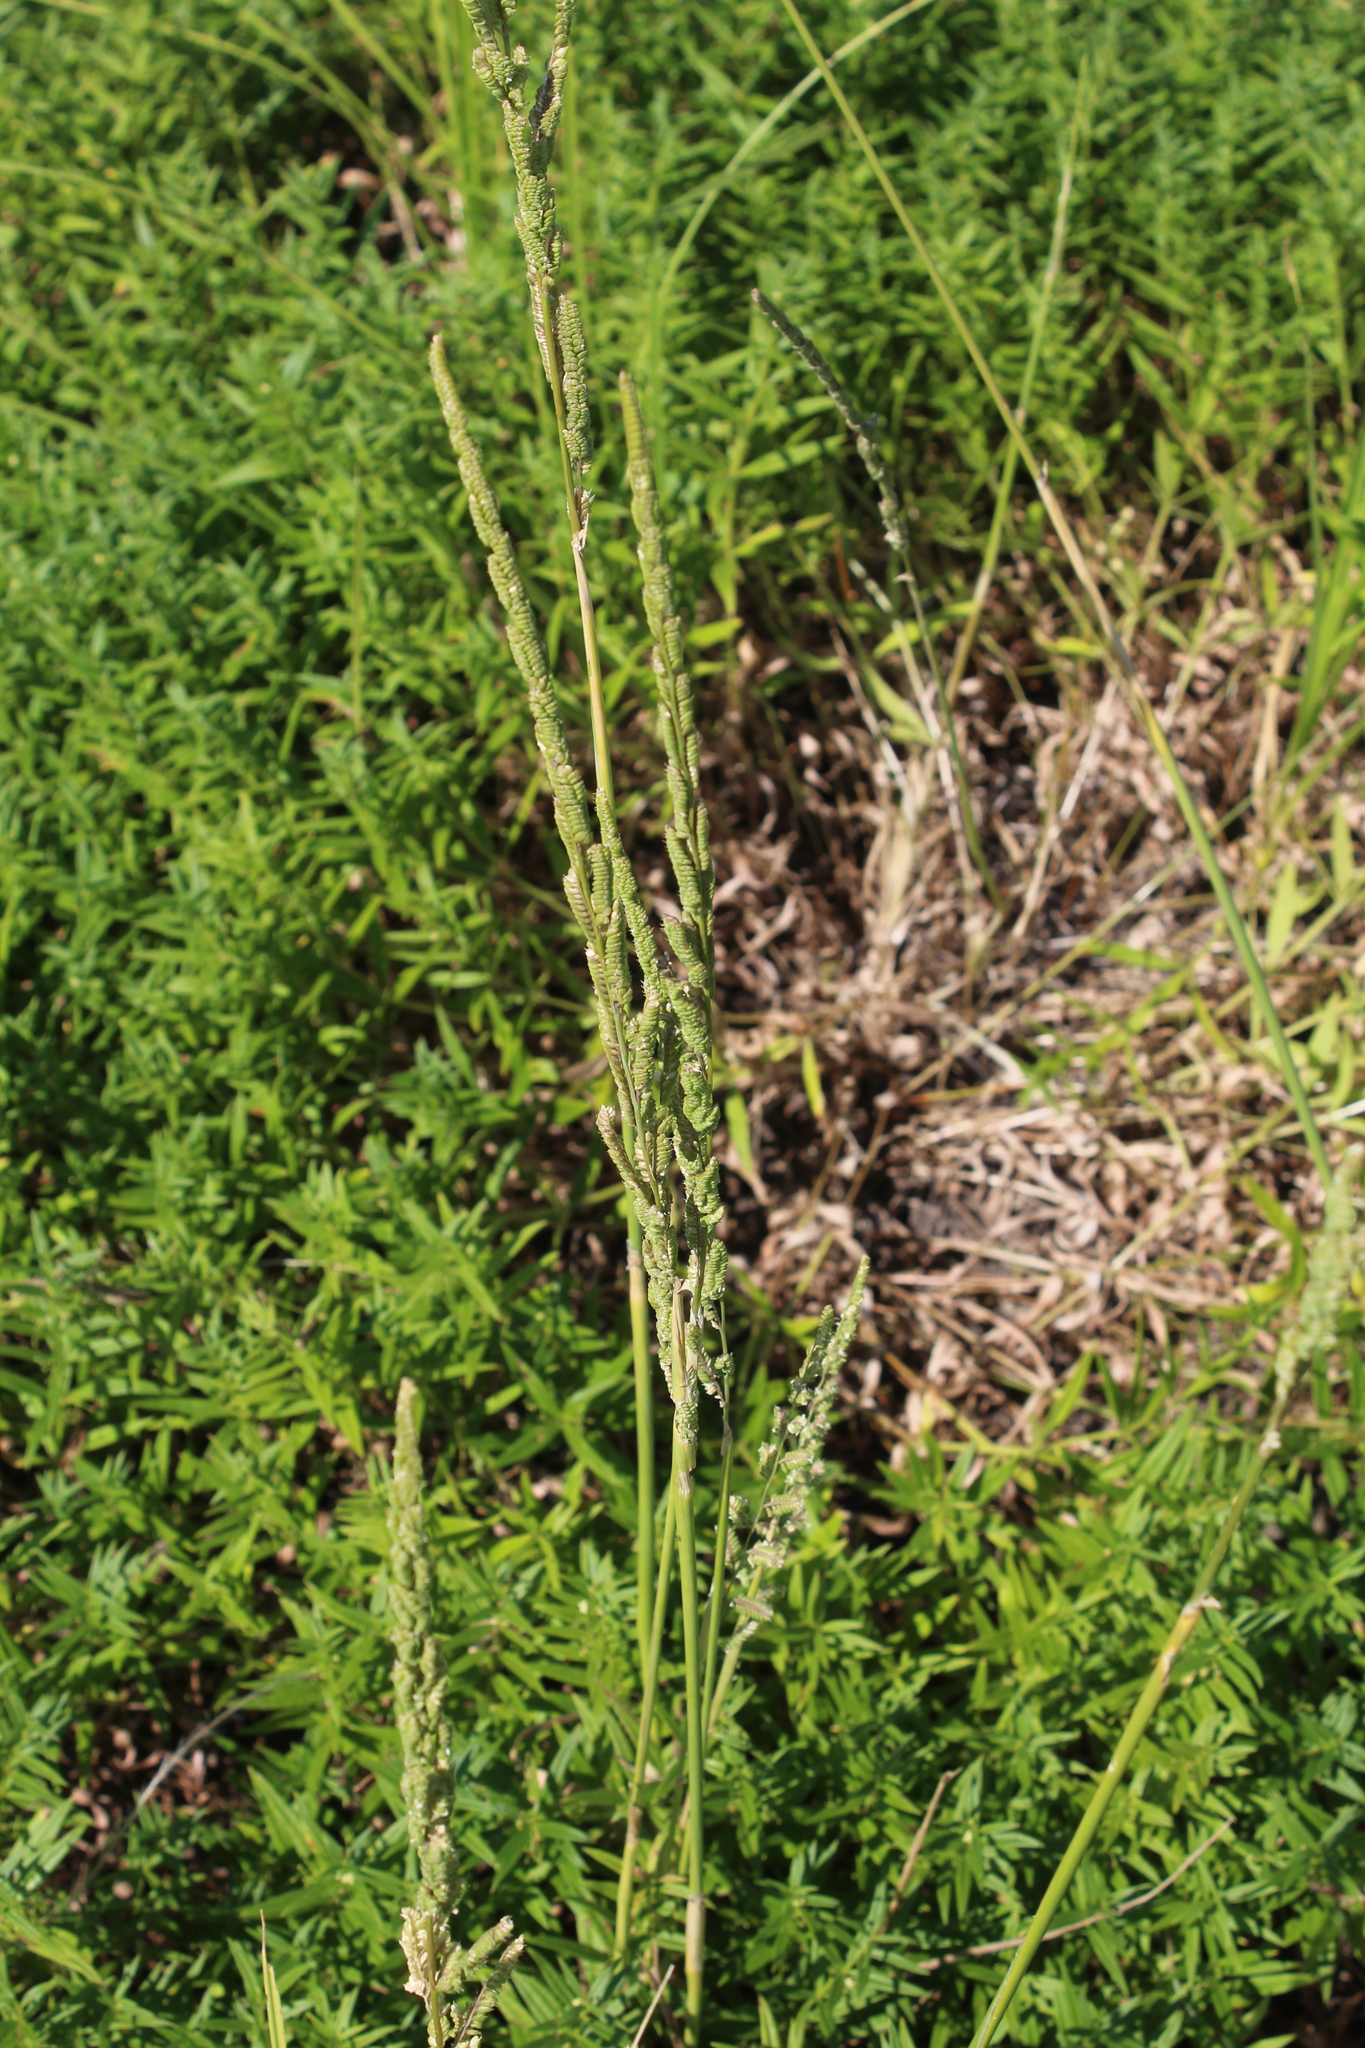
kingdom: Plantae
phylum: Tracheophyta
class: Liliopsida
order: Poales
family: Poaceae
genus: Beckmannia
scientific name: Beckmannia eruciformis
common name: European slough-grass
